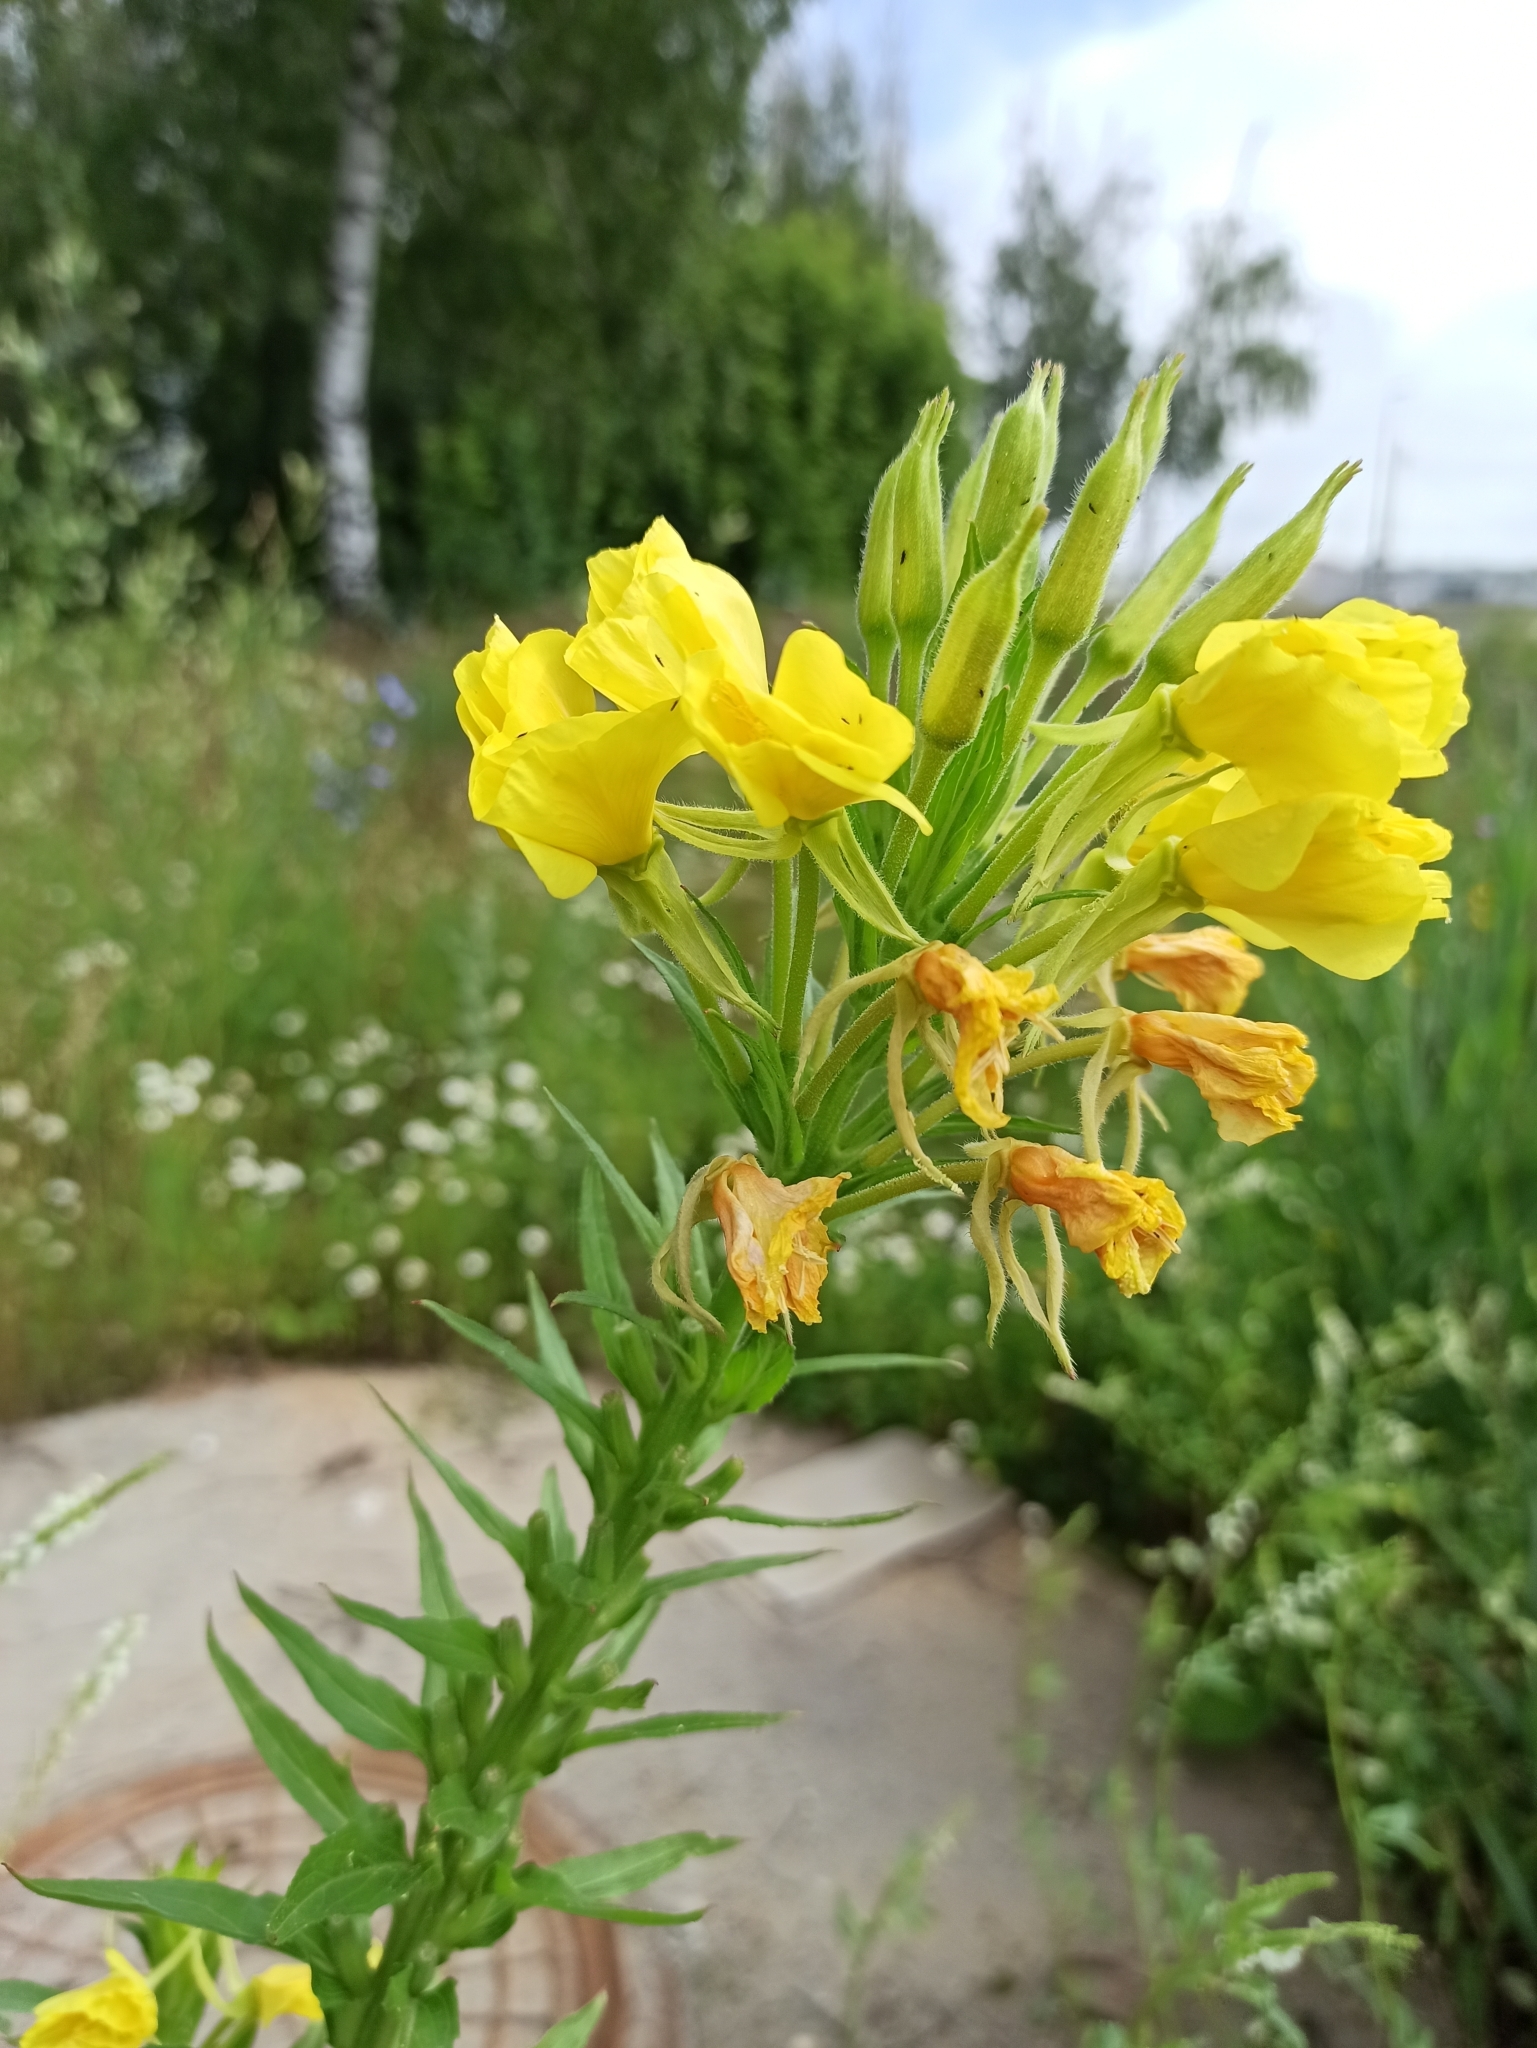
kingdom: Plantae
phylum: Tracheophyta
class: Magnoliopsida
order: Myrtales
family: Onagraceae
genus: Oenothera
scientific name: Oenothera biennis
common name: Common evening-primrose
